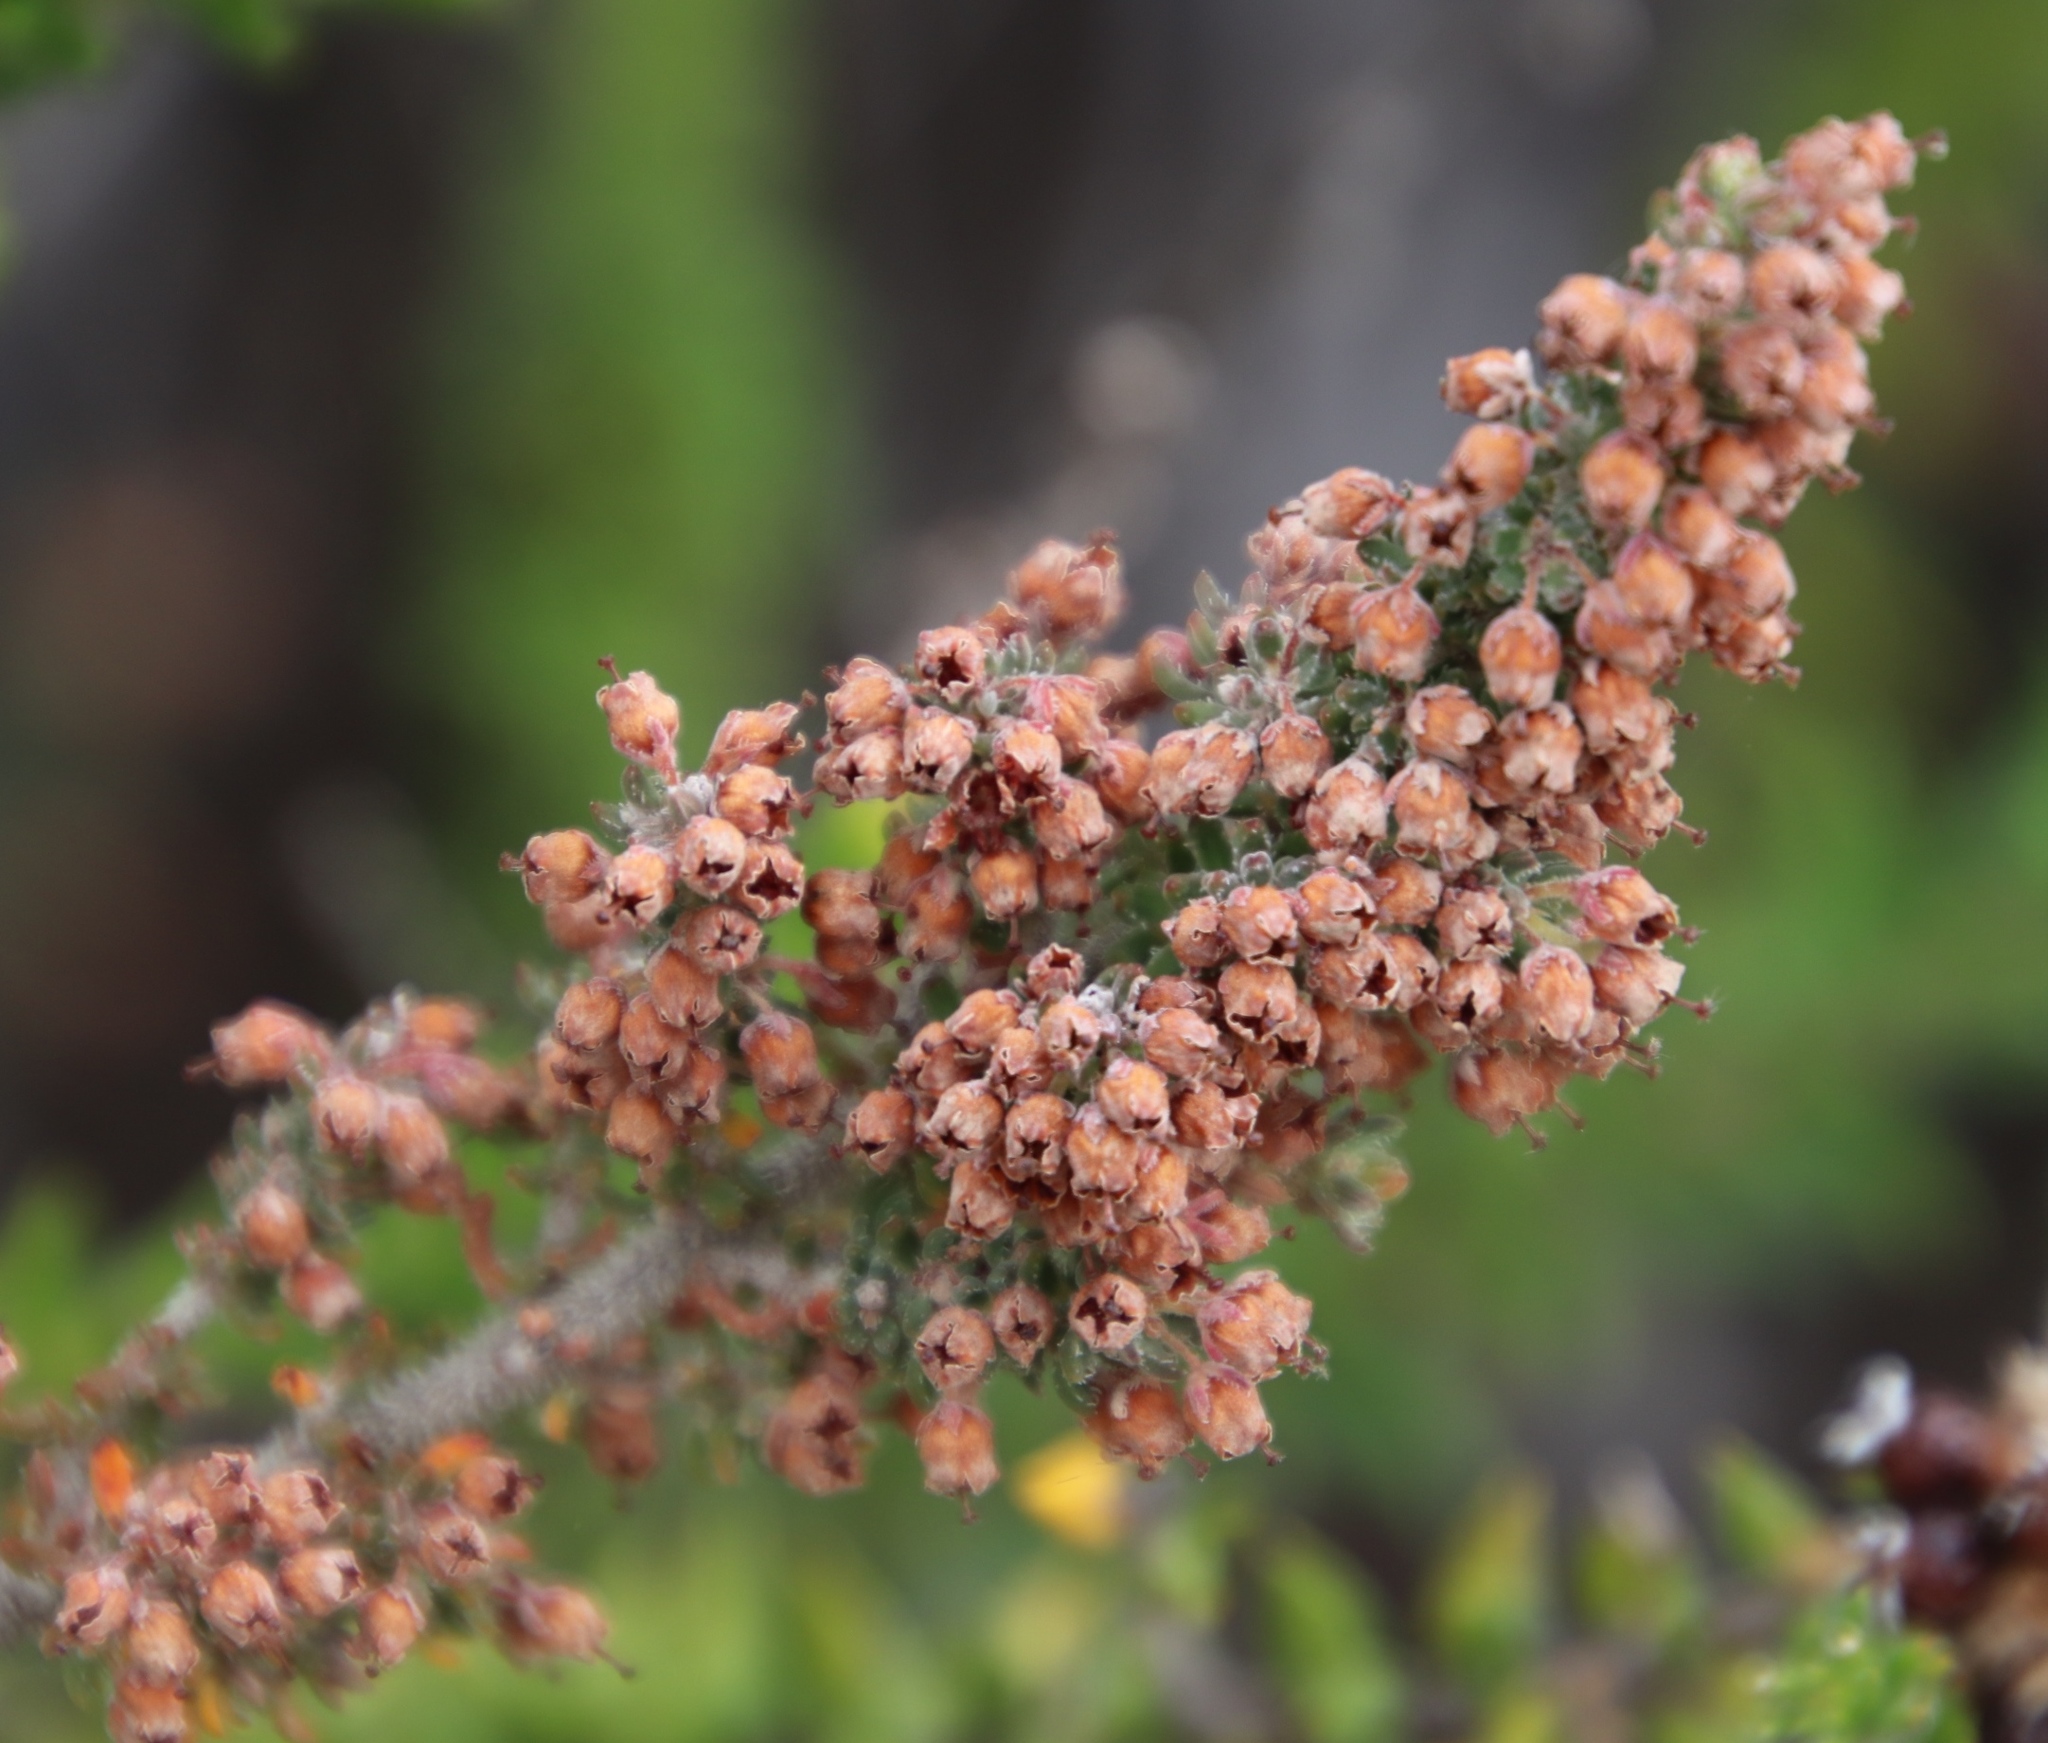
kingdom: Plantae
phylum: Tracheophyta
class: Magnoliopsida
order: Ericales
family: Ericaceae
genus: Erica
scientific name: Erica trichadenia
